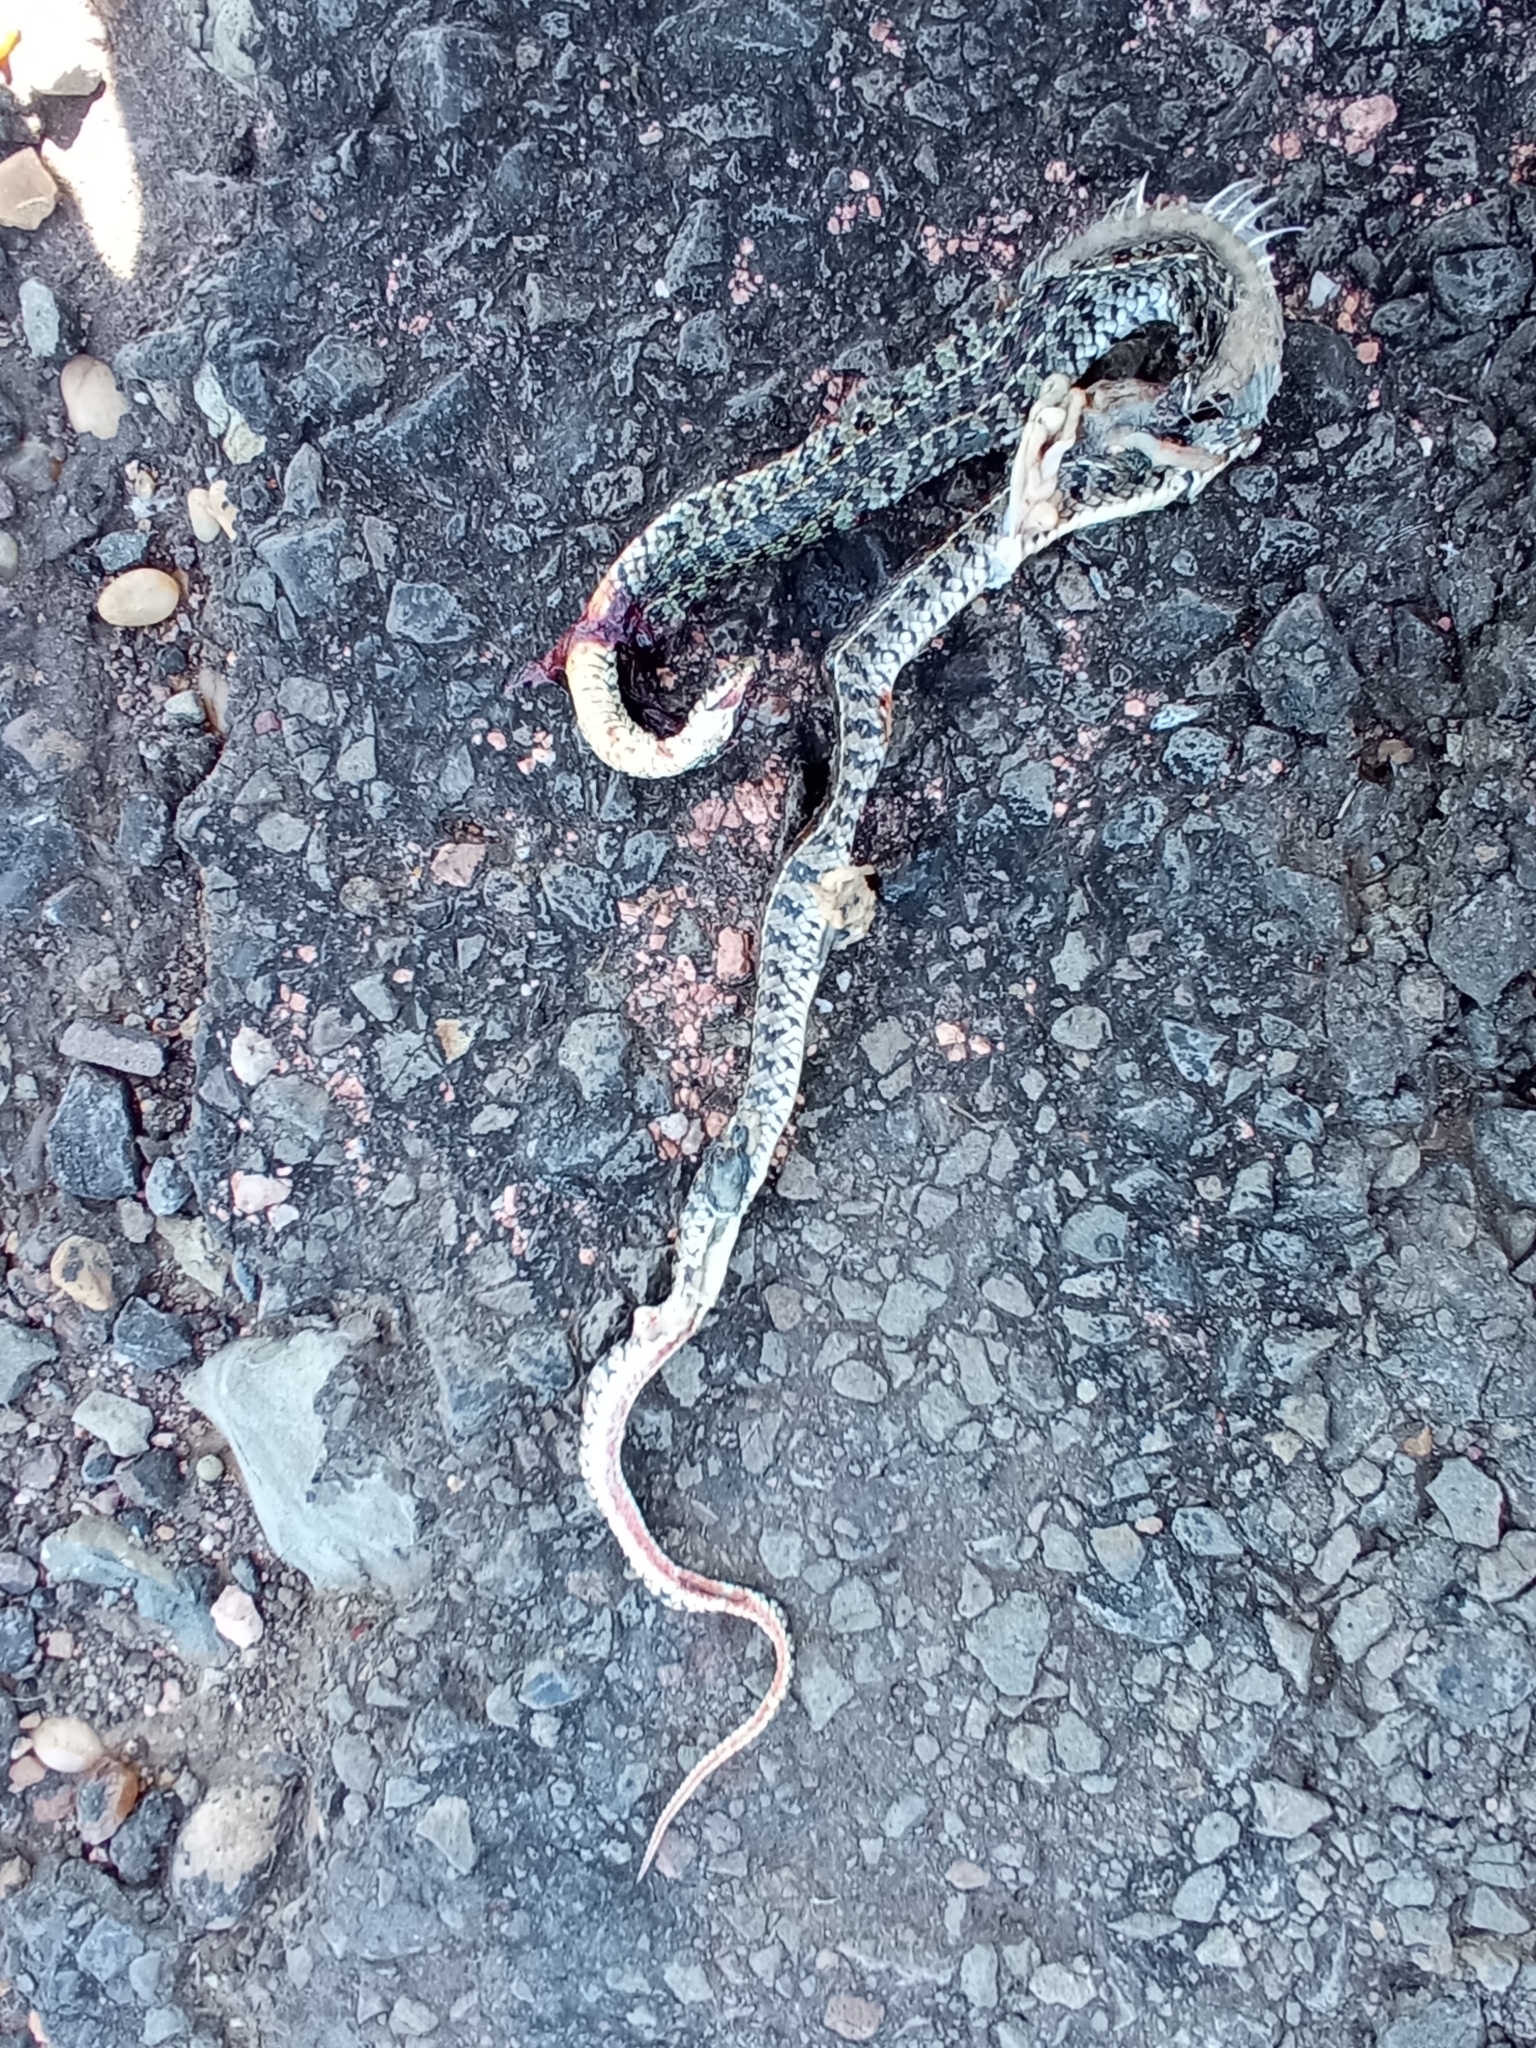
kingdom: Animalia
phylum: Chordata
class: Squamata
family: Colubridae
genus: Lygophis
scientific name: Lygophis anomalus
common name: English common name not available
